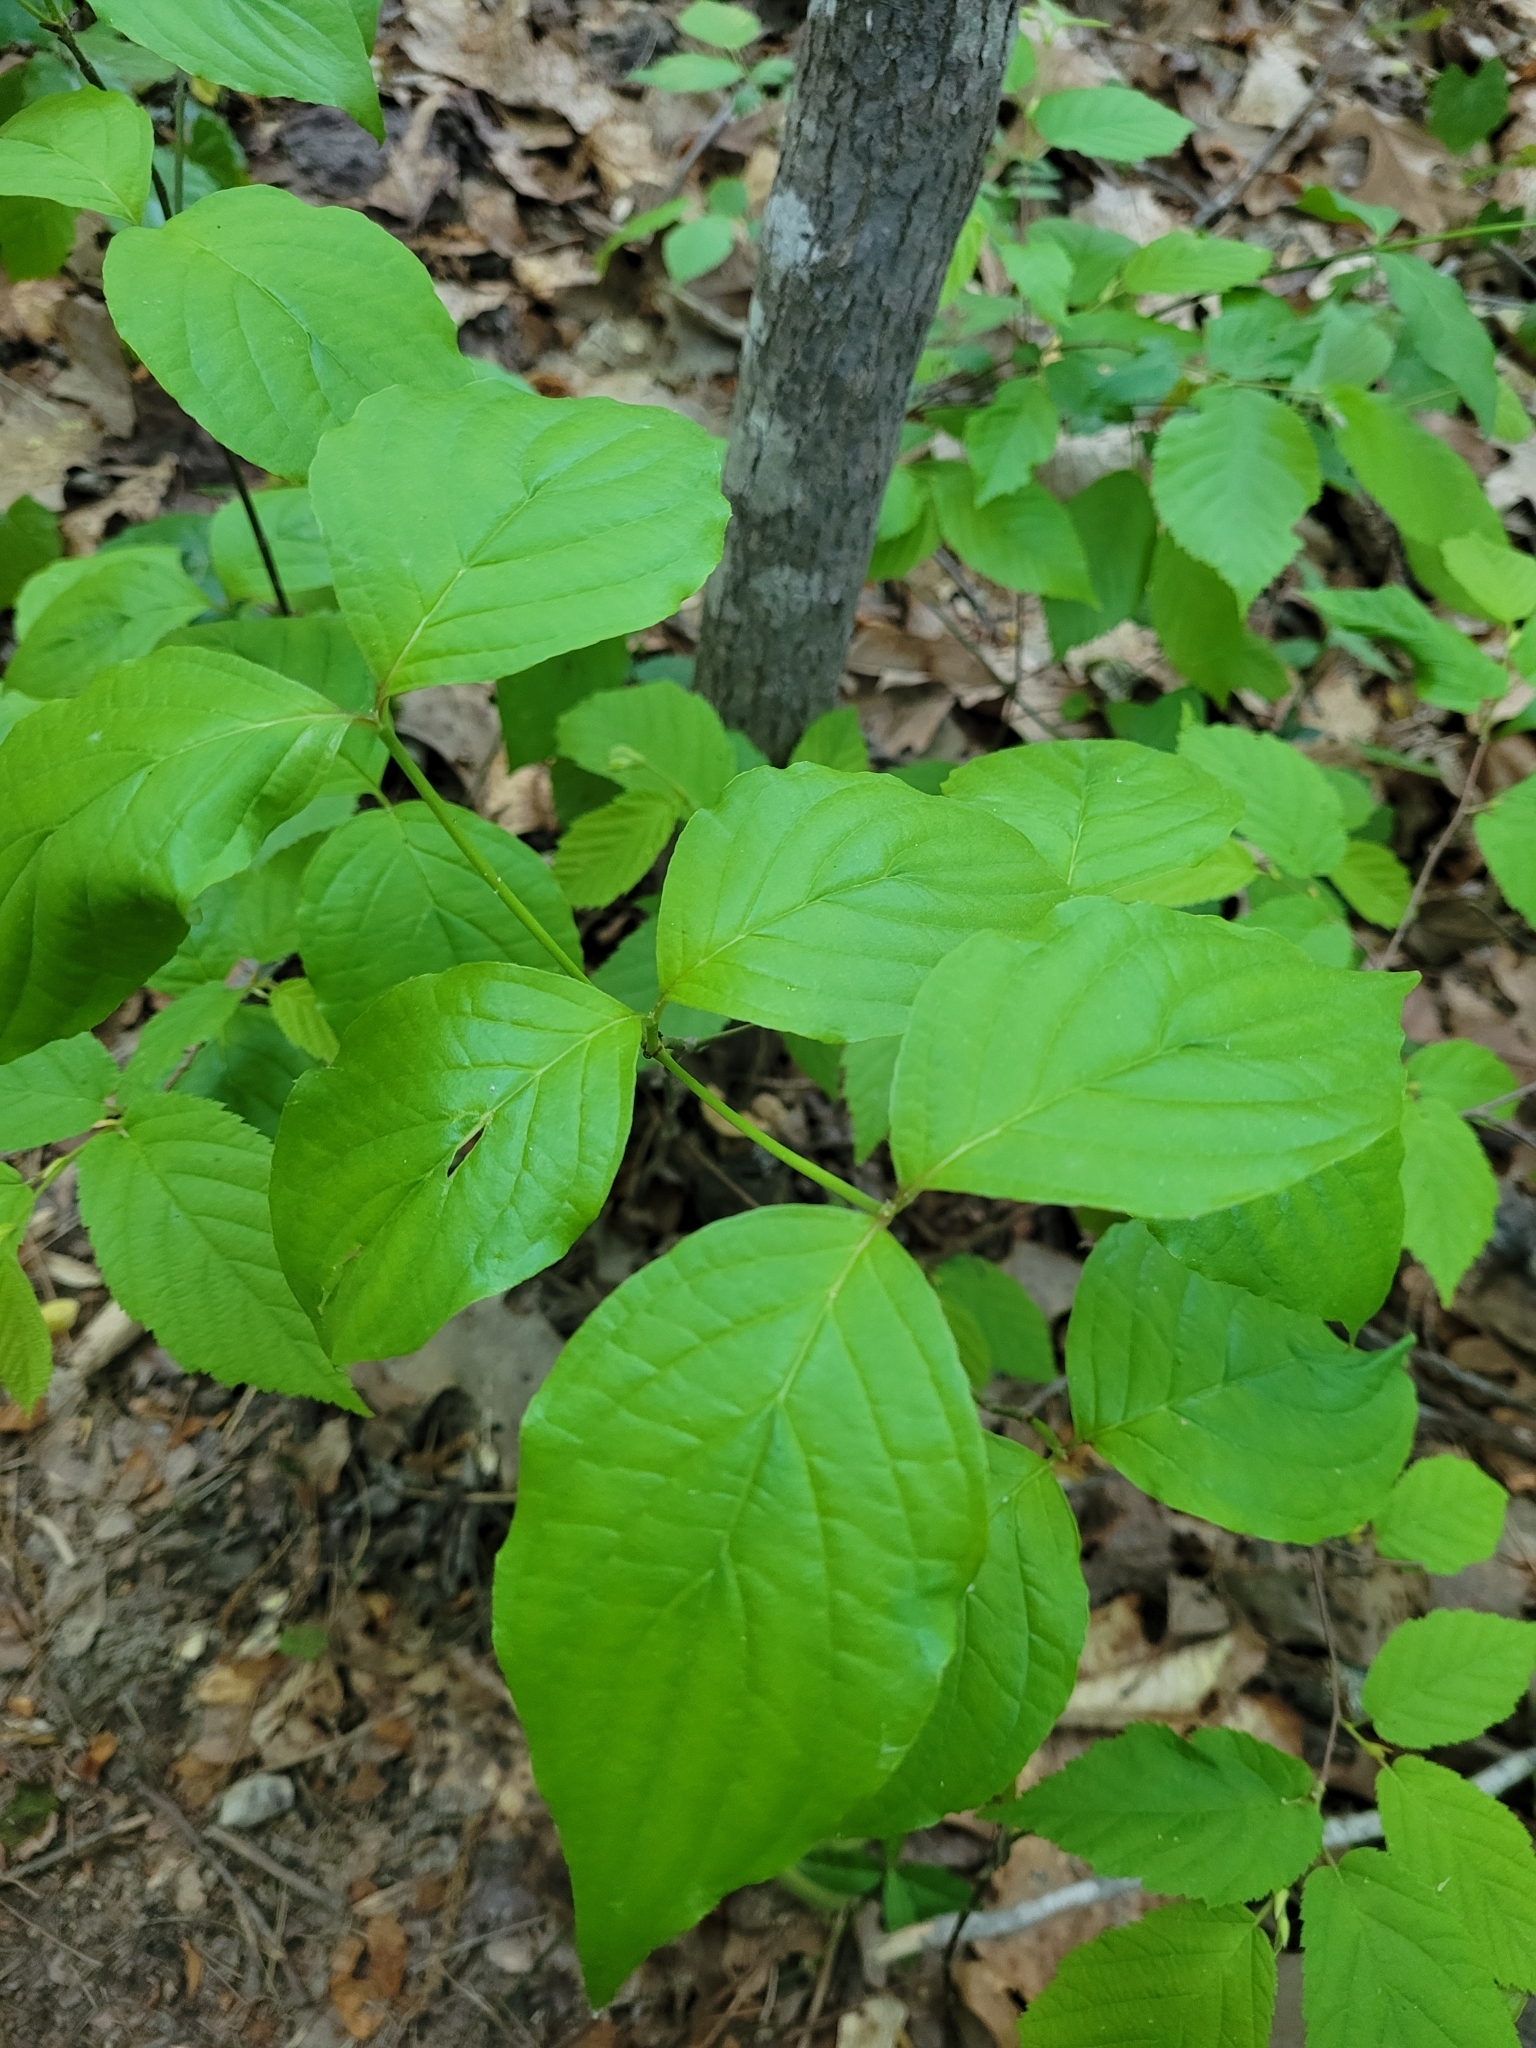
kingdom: Plantae
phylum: Tracheophyta
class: Magnoliopsida
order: Cornales
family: Cornaceae
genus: Cornus
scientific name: Cornus florida
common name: Flowering dogwood
